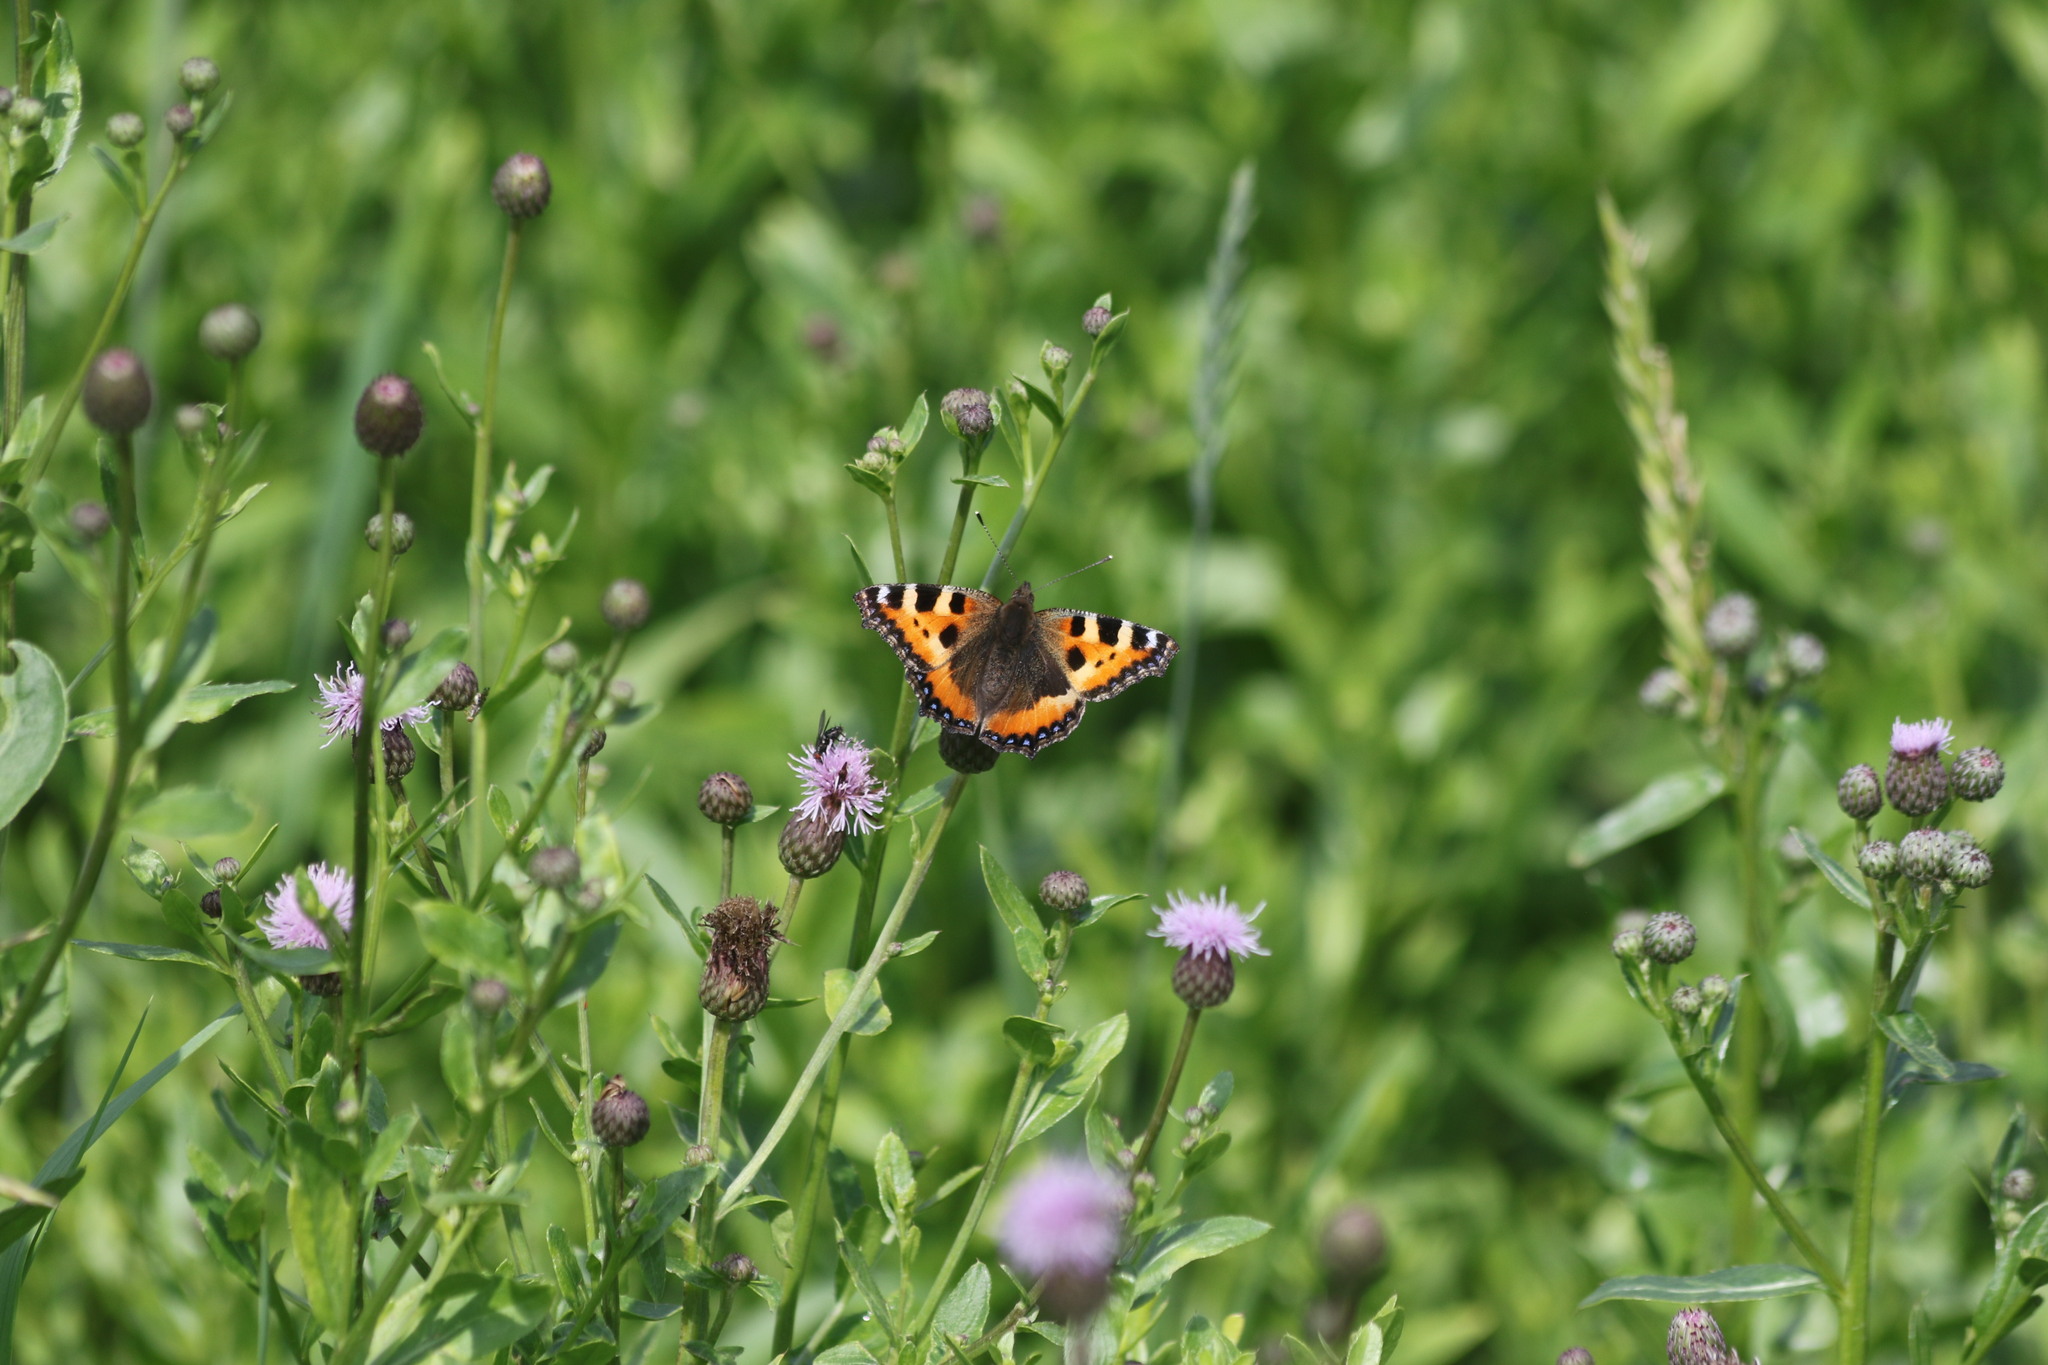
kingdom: Animalia
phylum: Arthropoda
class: Insecta
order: Lepidoptera
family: Nymphalidae
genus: Aglais
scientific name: Aglais urticae
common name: Small tortoiseshell
